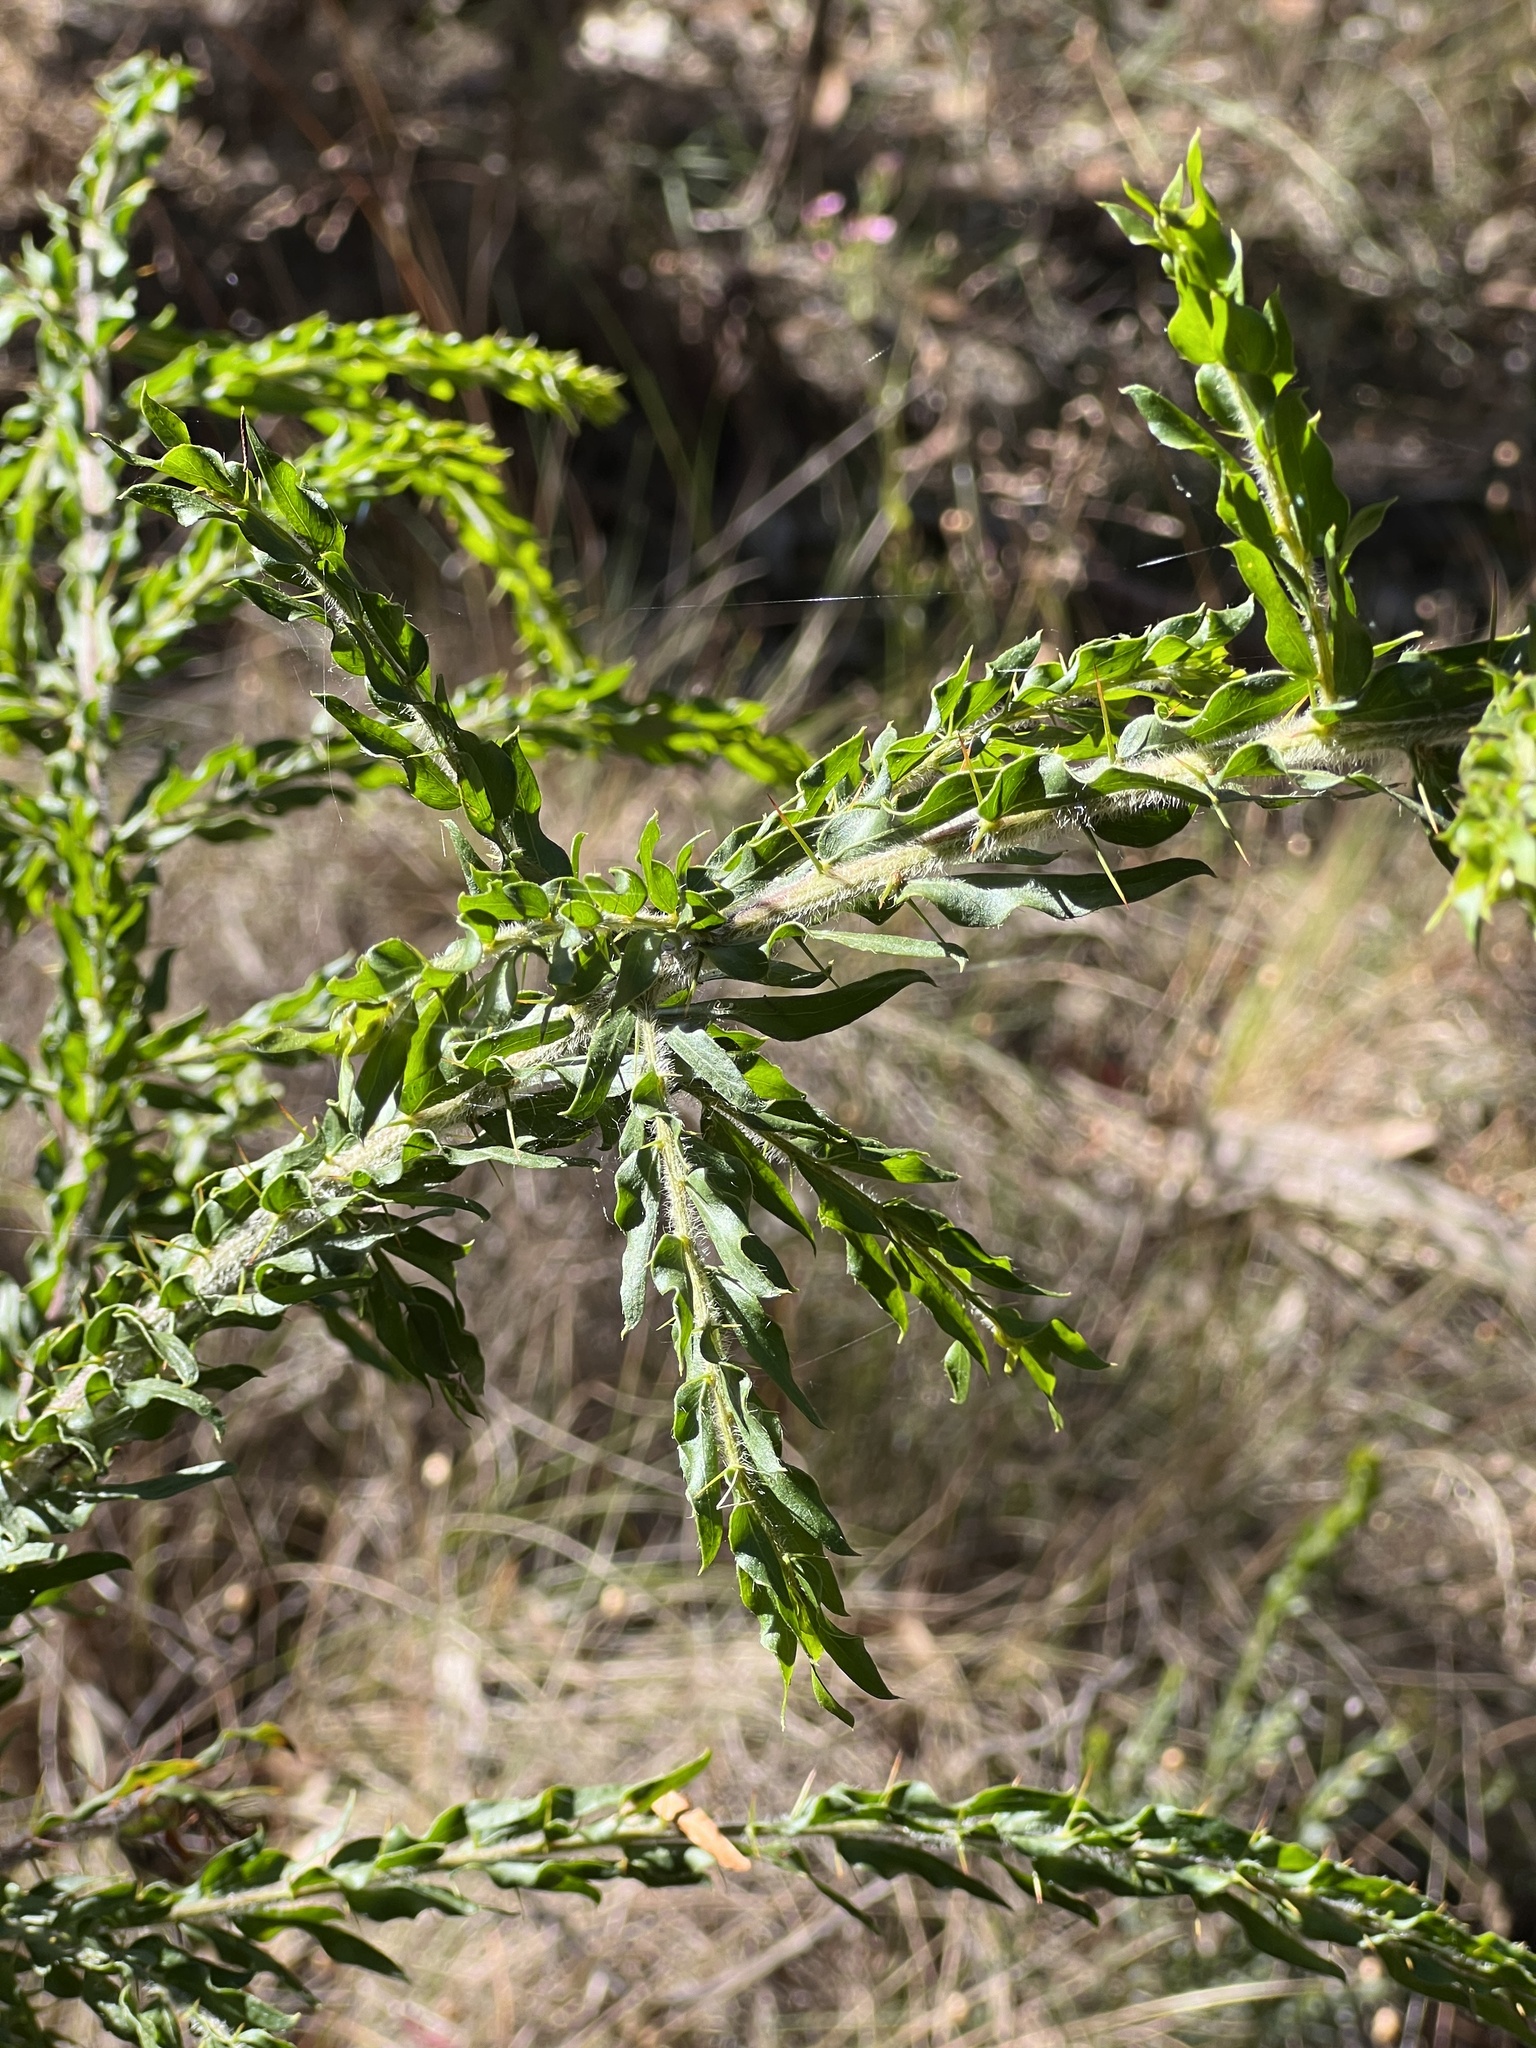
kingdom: Plantae
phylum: Tracheophyta
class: Magnoliopsida
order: Fabales
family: Fabaceae
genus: Acacia
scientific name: Acacia paradoxa
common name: Paradox acacia
